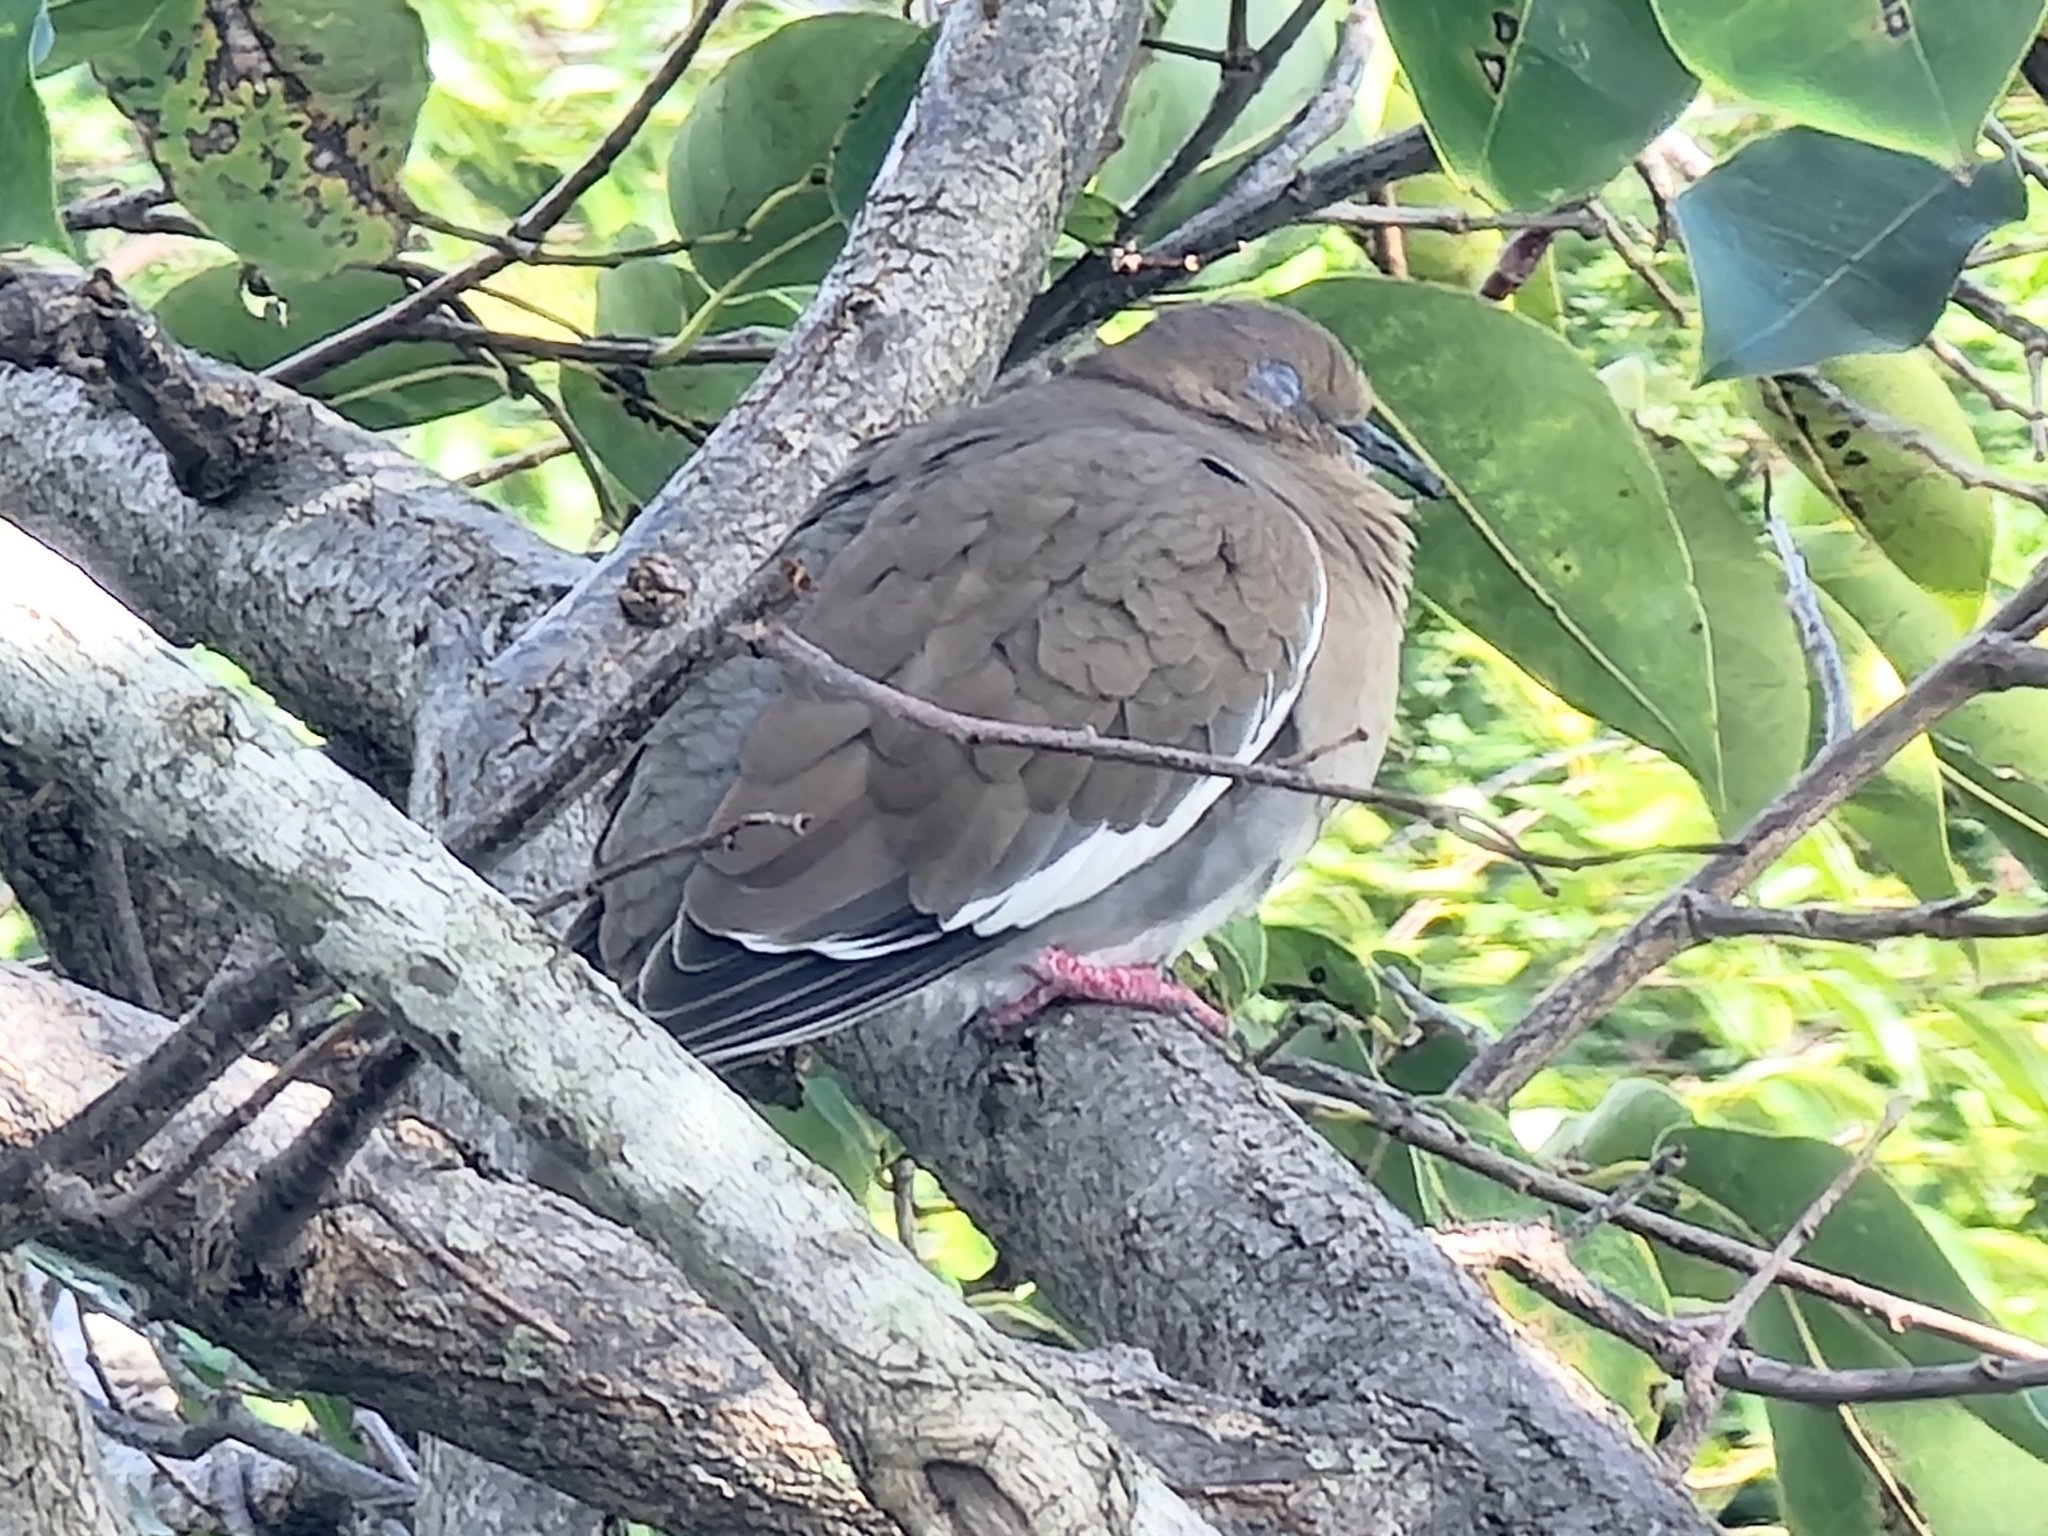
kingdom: Animalia
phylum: Chordata
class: Aves
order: Columbiformes
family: Columbidae
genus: Zenaida
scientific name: Zenaida asiatica
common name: White-winged dove
